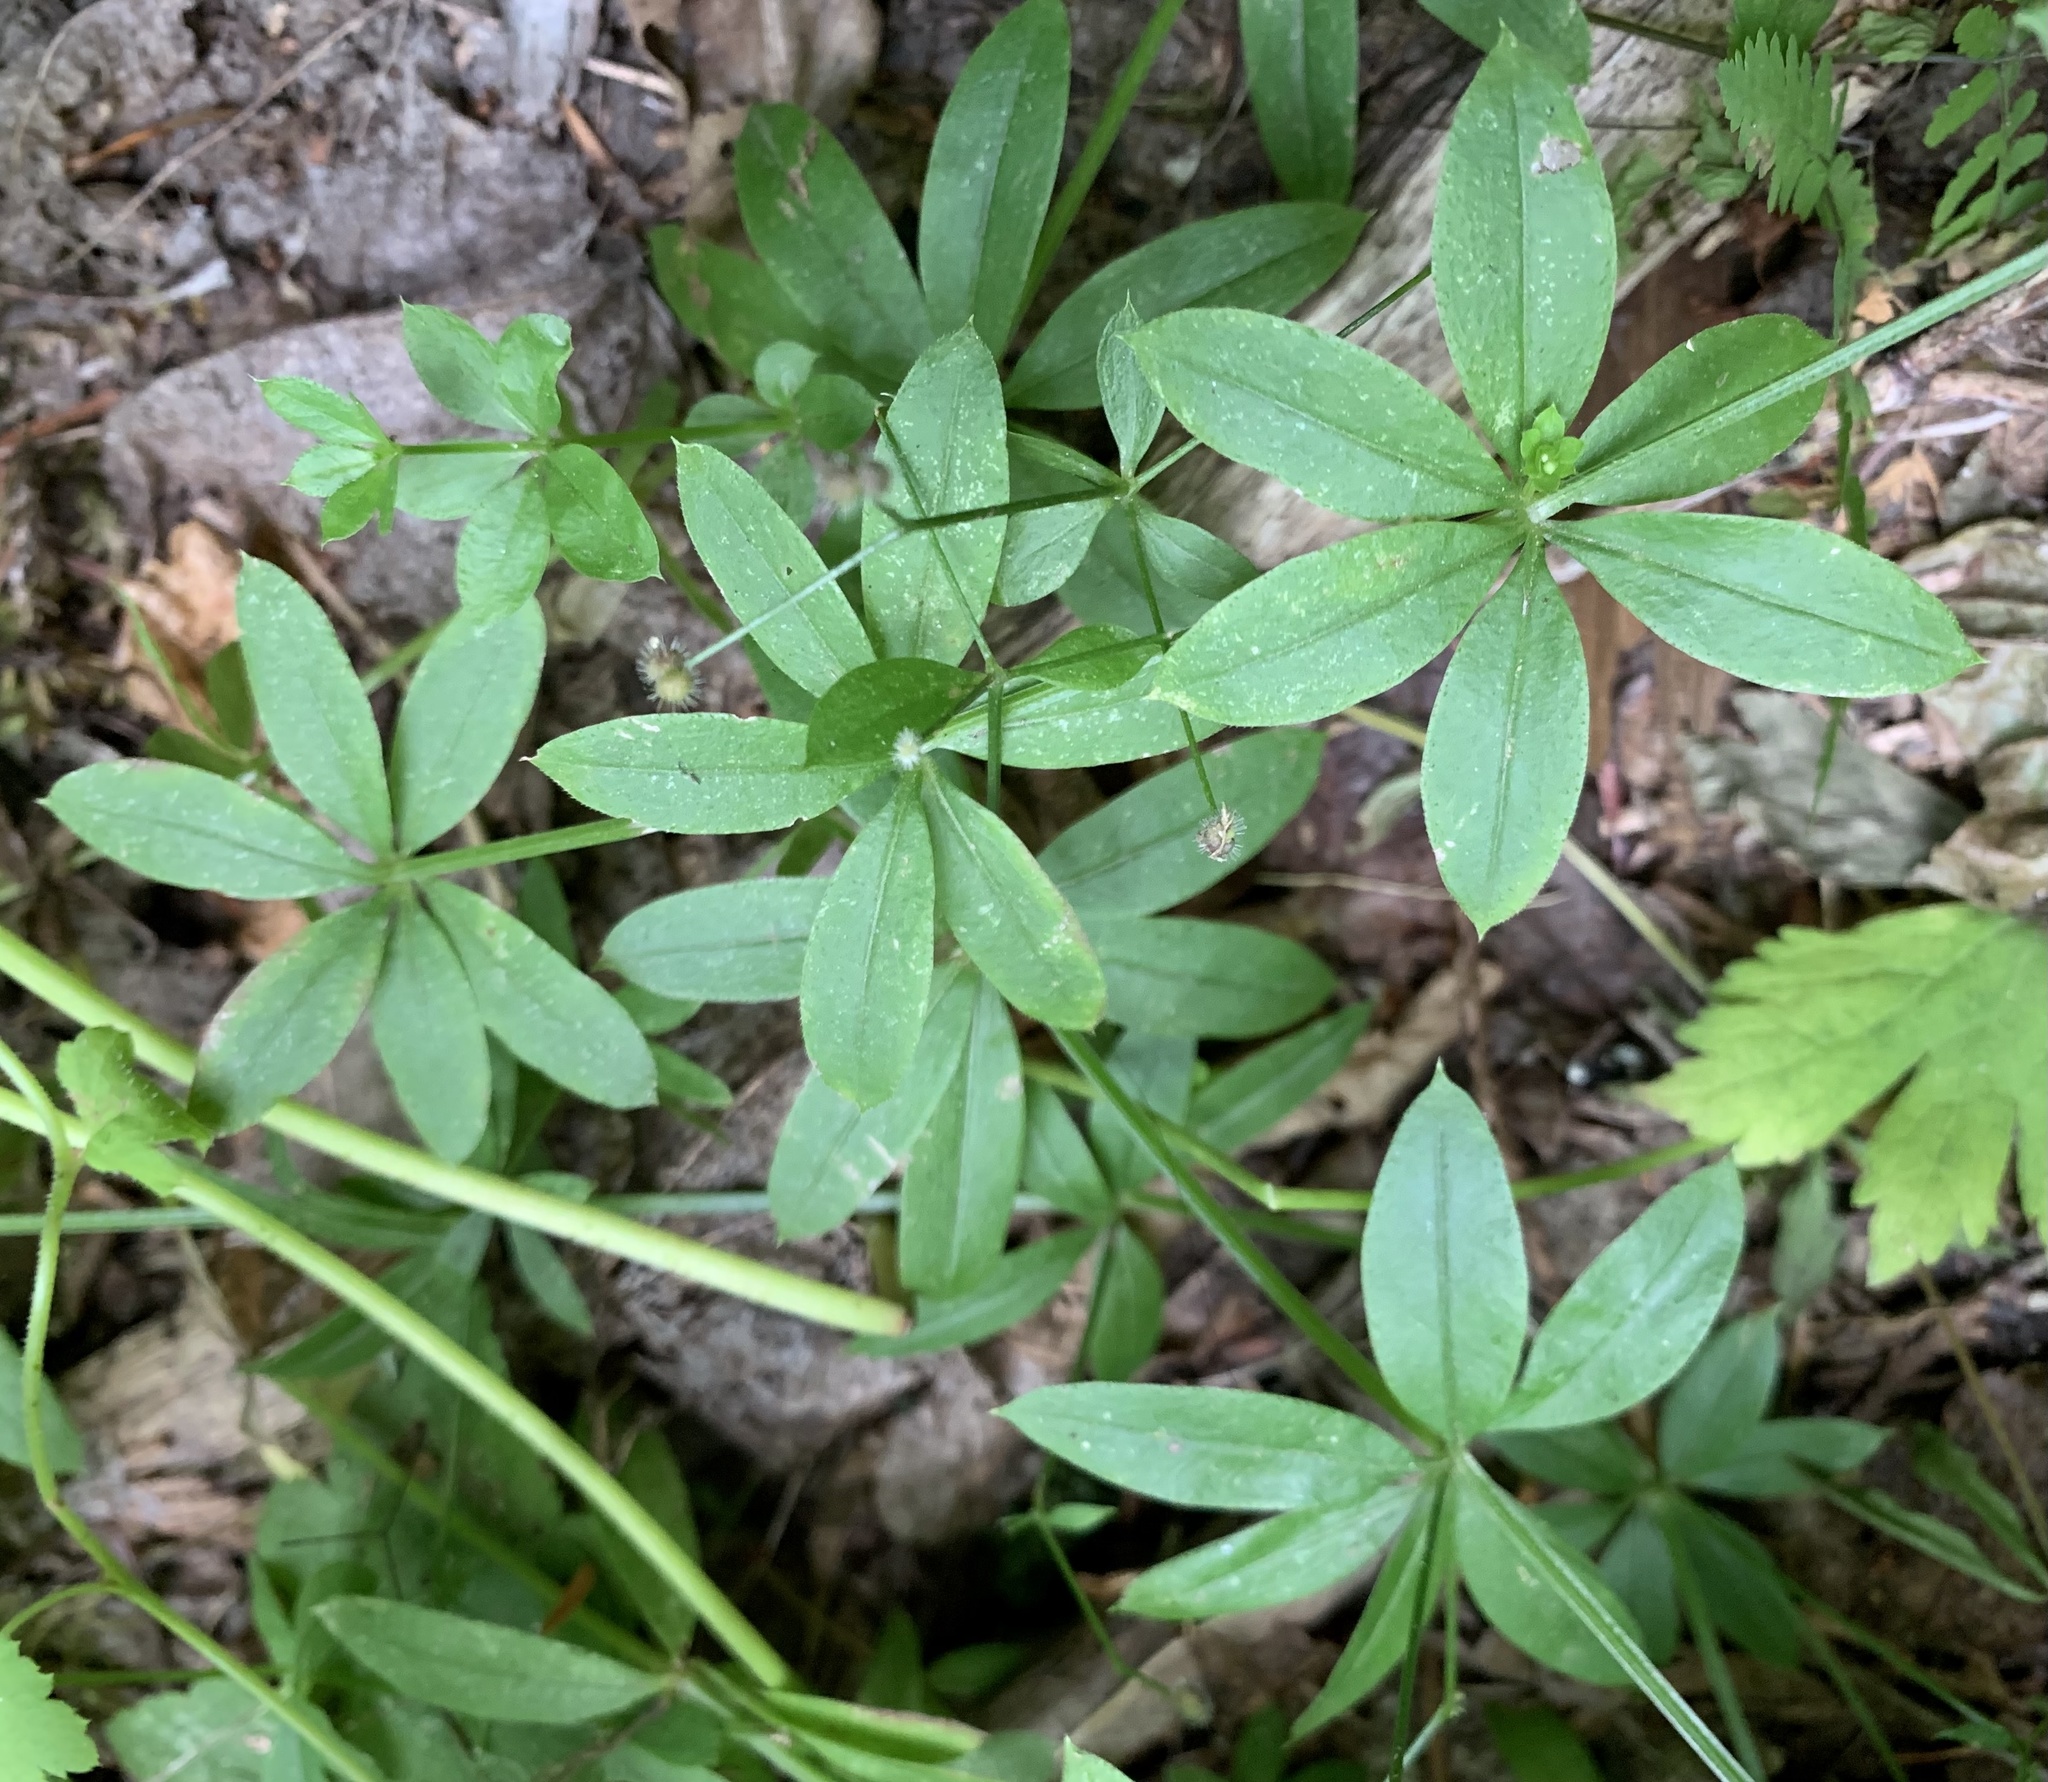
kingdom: Plantae
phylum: Tracheophyta
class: Magnoliopsida
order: Gentianales
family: Rubiaceae
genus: Galium
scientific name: Galium triflorum
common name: Fragrant bedstraw
